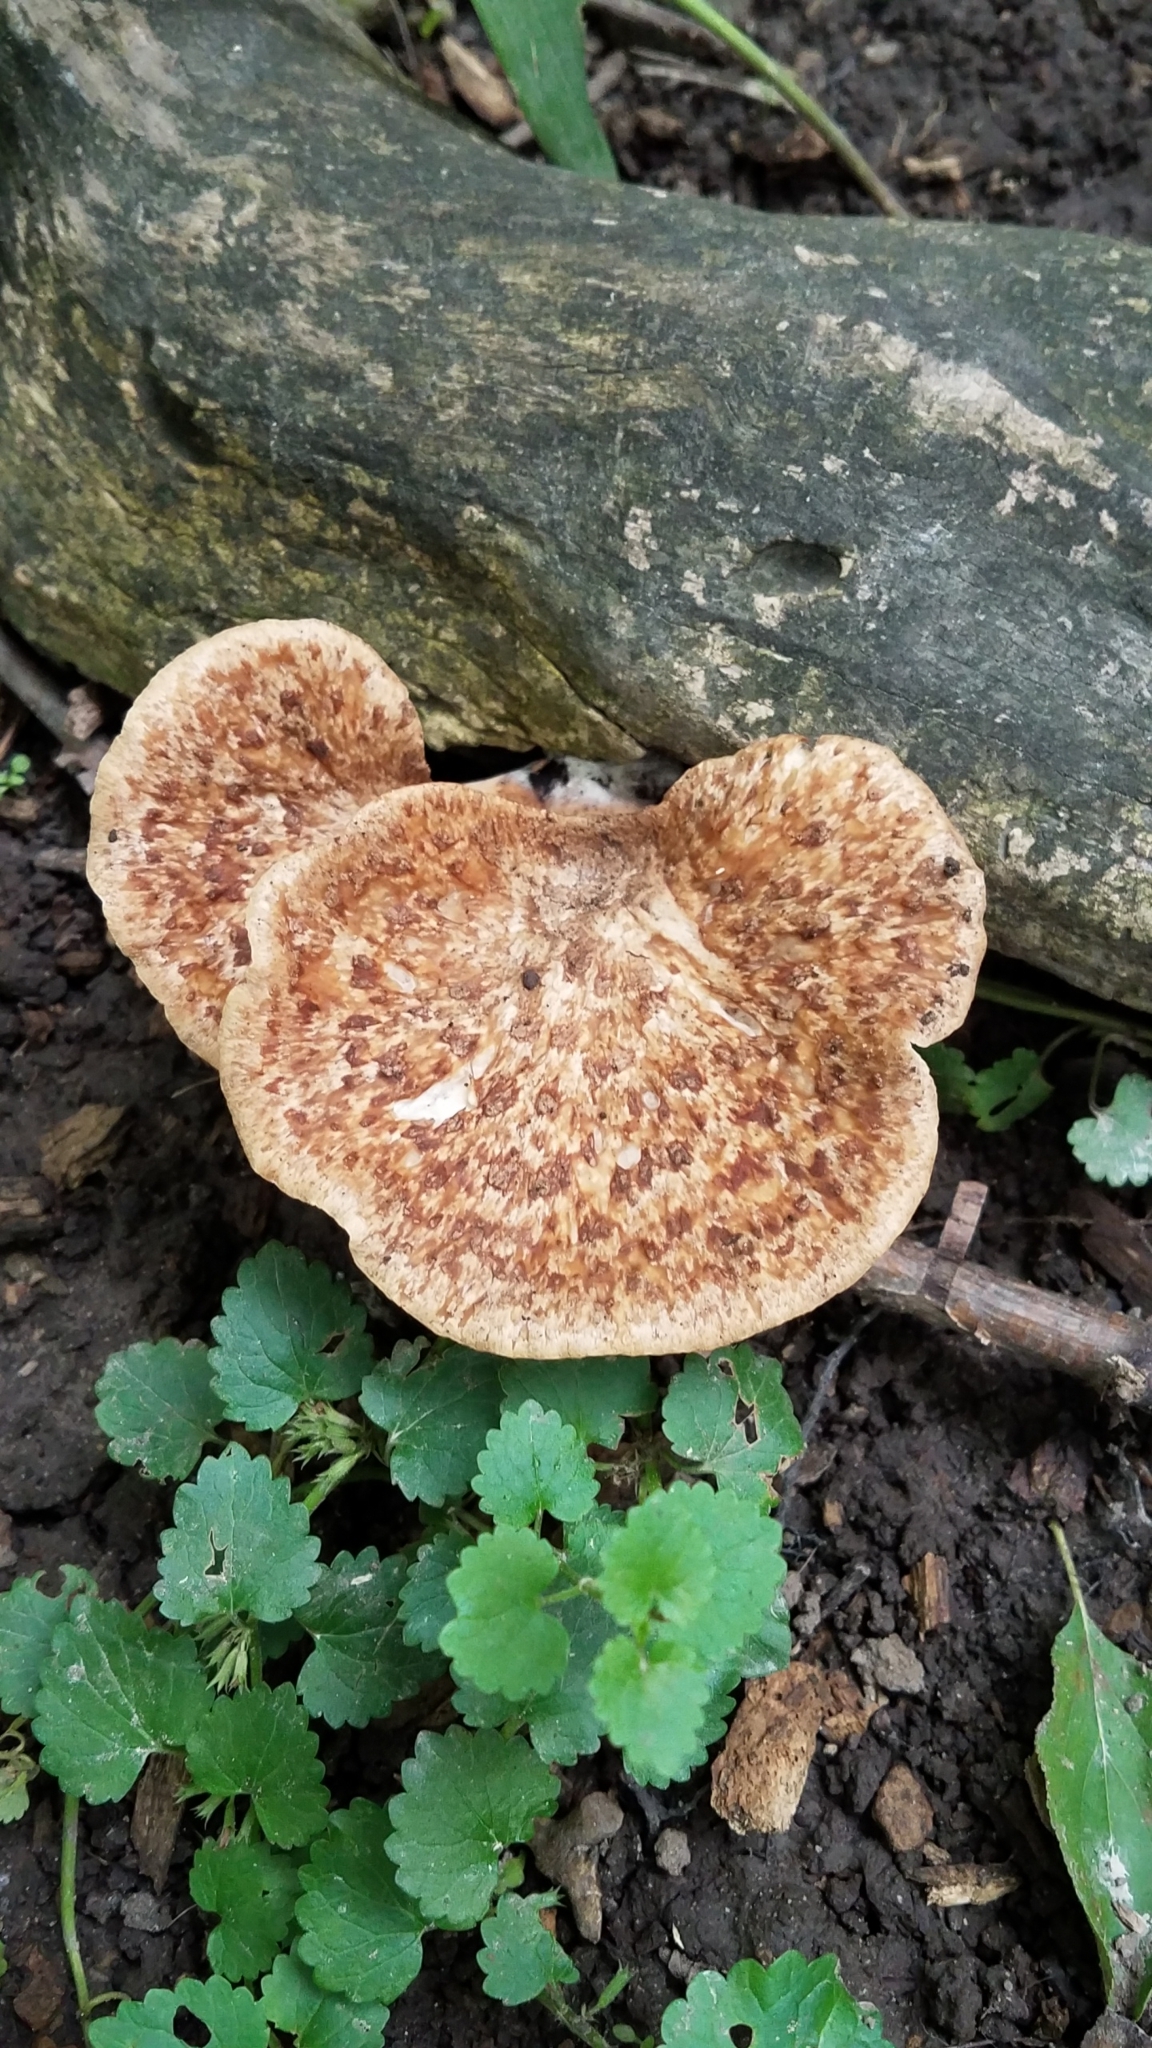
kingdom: Fungi
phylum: Basidiomycota
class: Agaricomycetes
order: Polyporales
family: Polyporaceae
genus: Cerioporus
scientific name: Cerioporus squamosus
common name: Dryad's saddle
